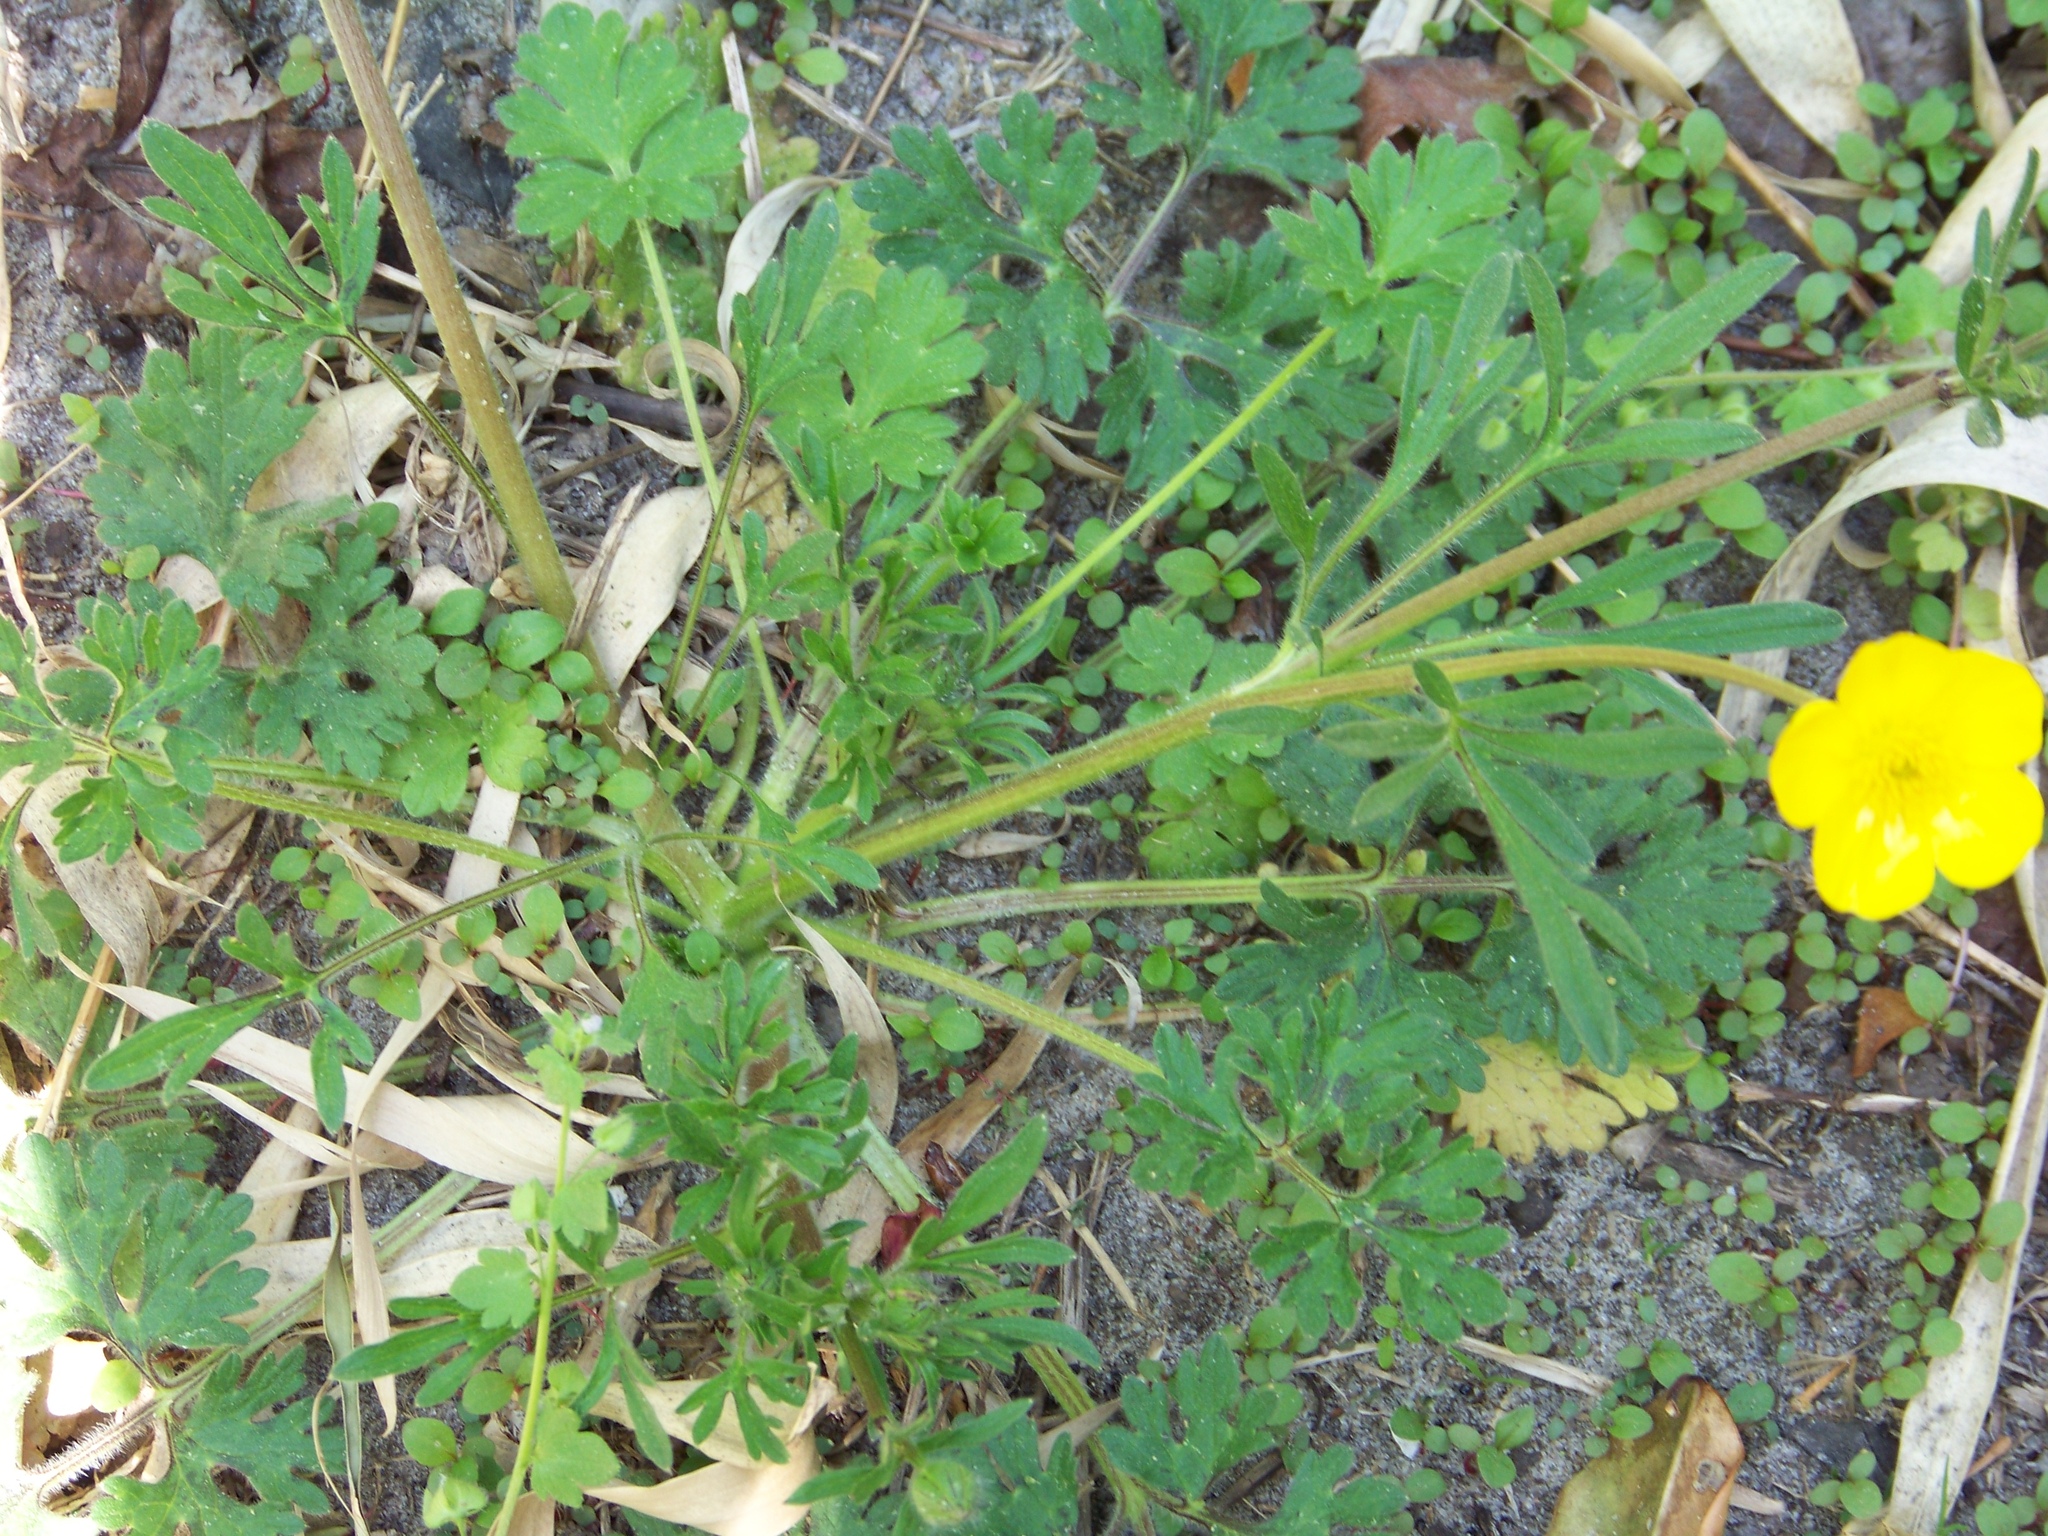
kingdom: Plantae
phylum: Tracheophyta
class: Magnoliopsida
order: Ranunculales
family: Ranunculaceae
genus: Ranunculus
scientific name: Ranunculus bulbosus
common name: Bulbous buttercup
